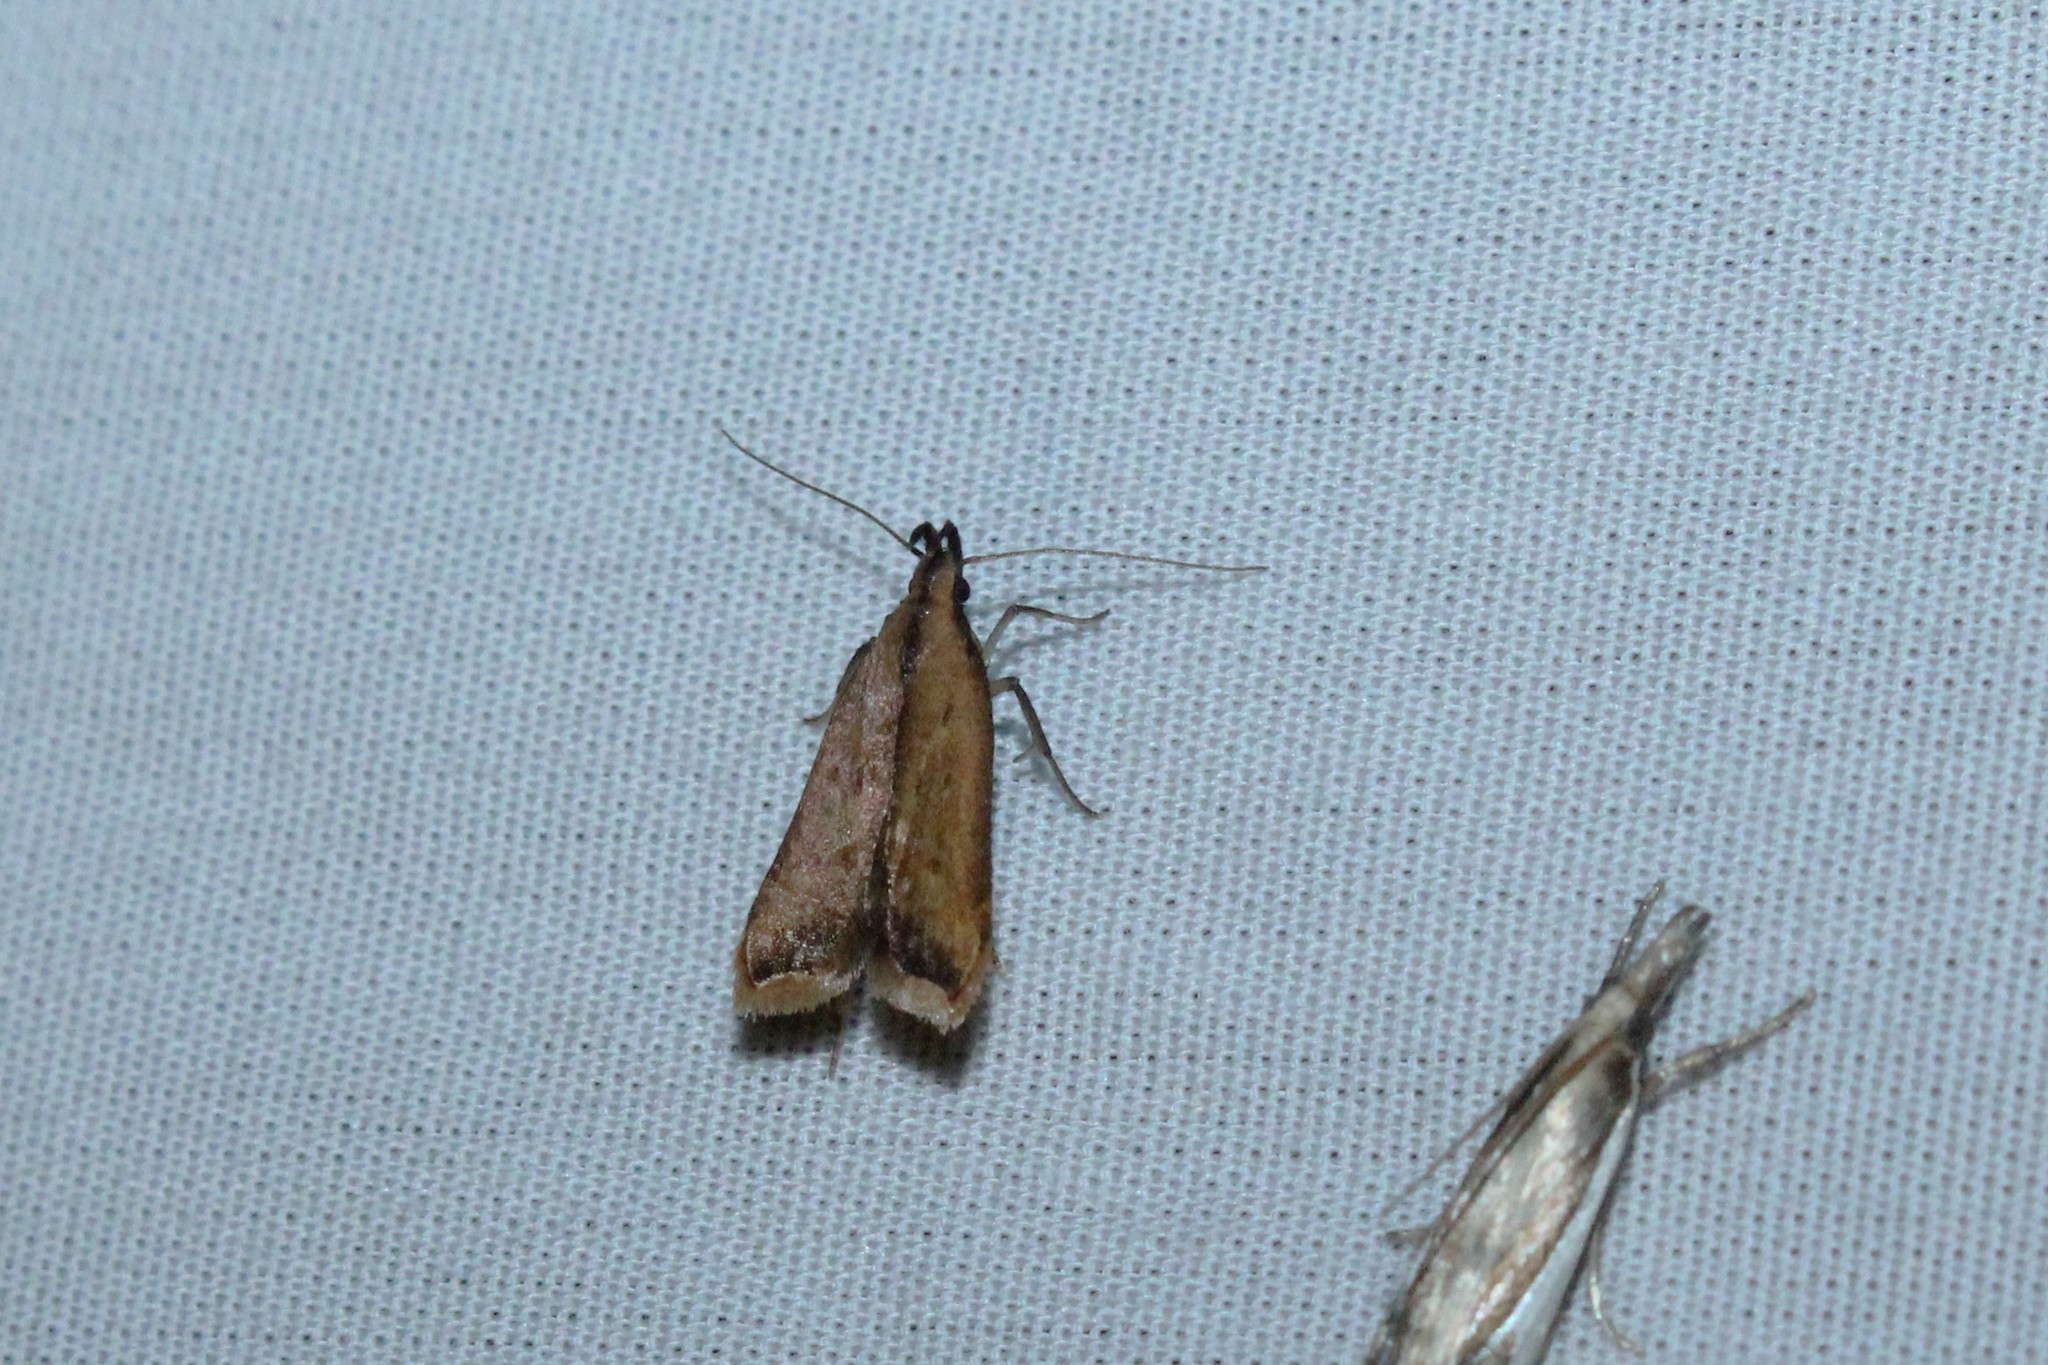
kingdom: Animalia
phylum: Arthropoda
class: Insecta
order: Lepidoptera
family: Gelechiidae
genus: Dichomeris
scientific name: Dichomeris heriguronis
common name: Black-edged dichomeris moth
